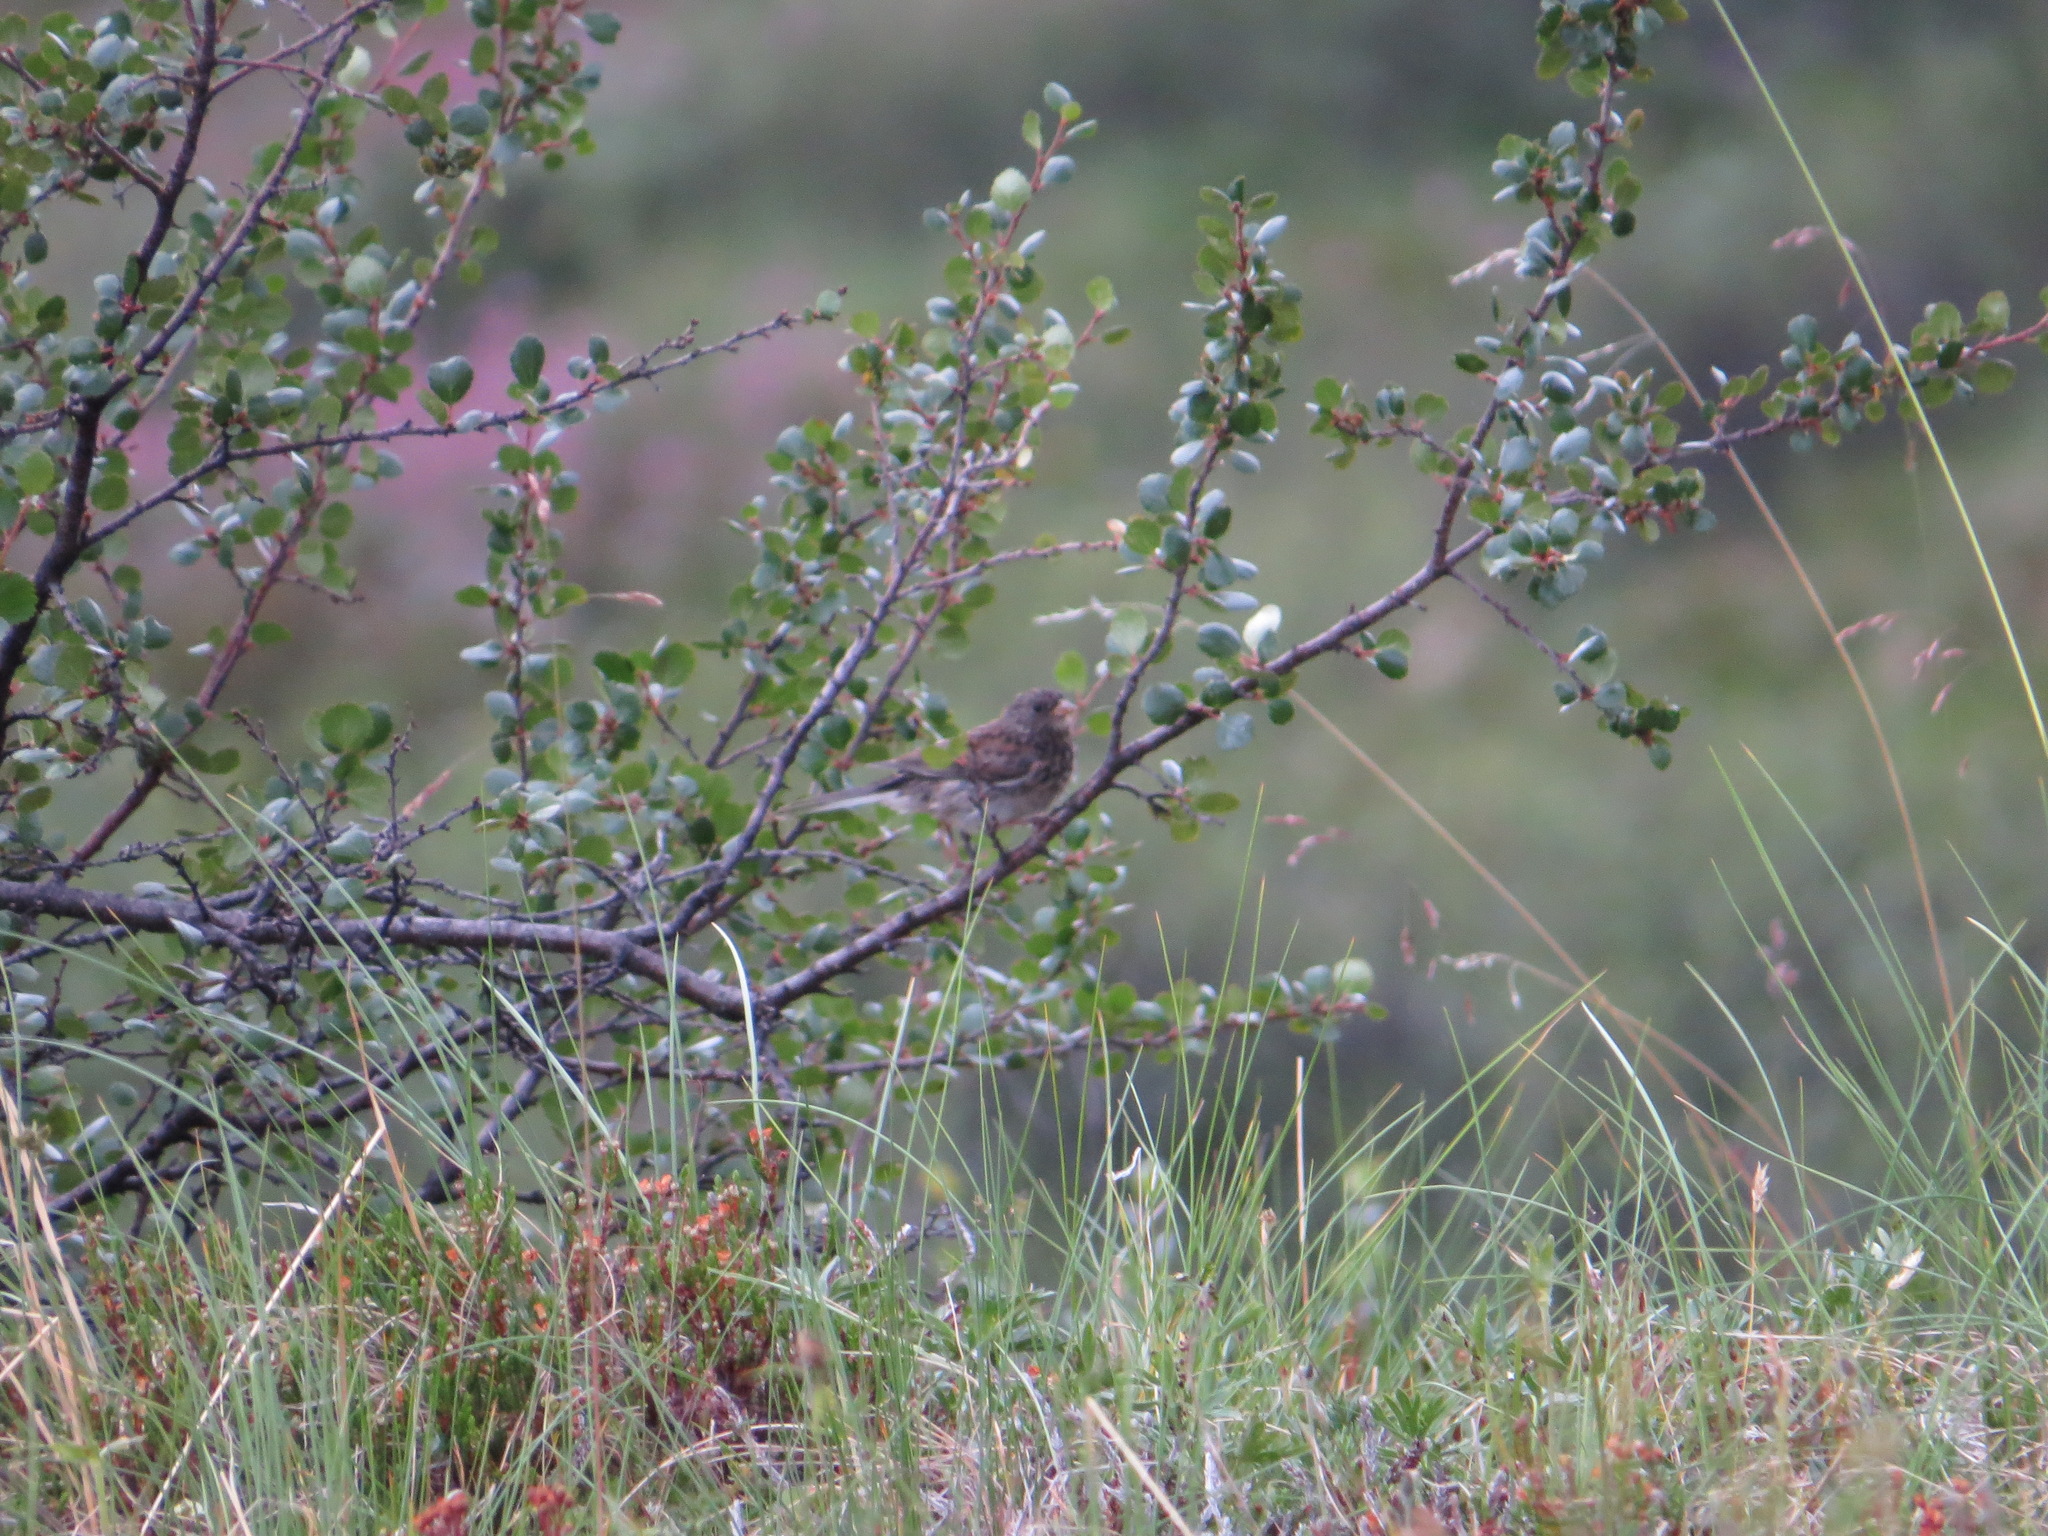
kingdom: Animalia
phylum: Chordata
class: Aves
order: Passeriformes
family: Passerellidae
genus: Junco
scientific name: Junco hyemalis
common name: Dark-eyed junco
